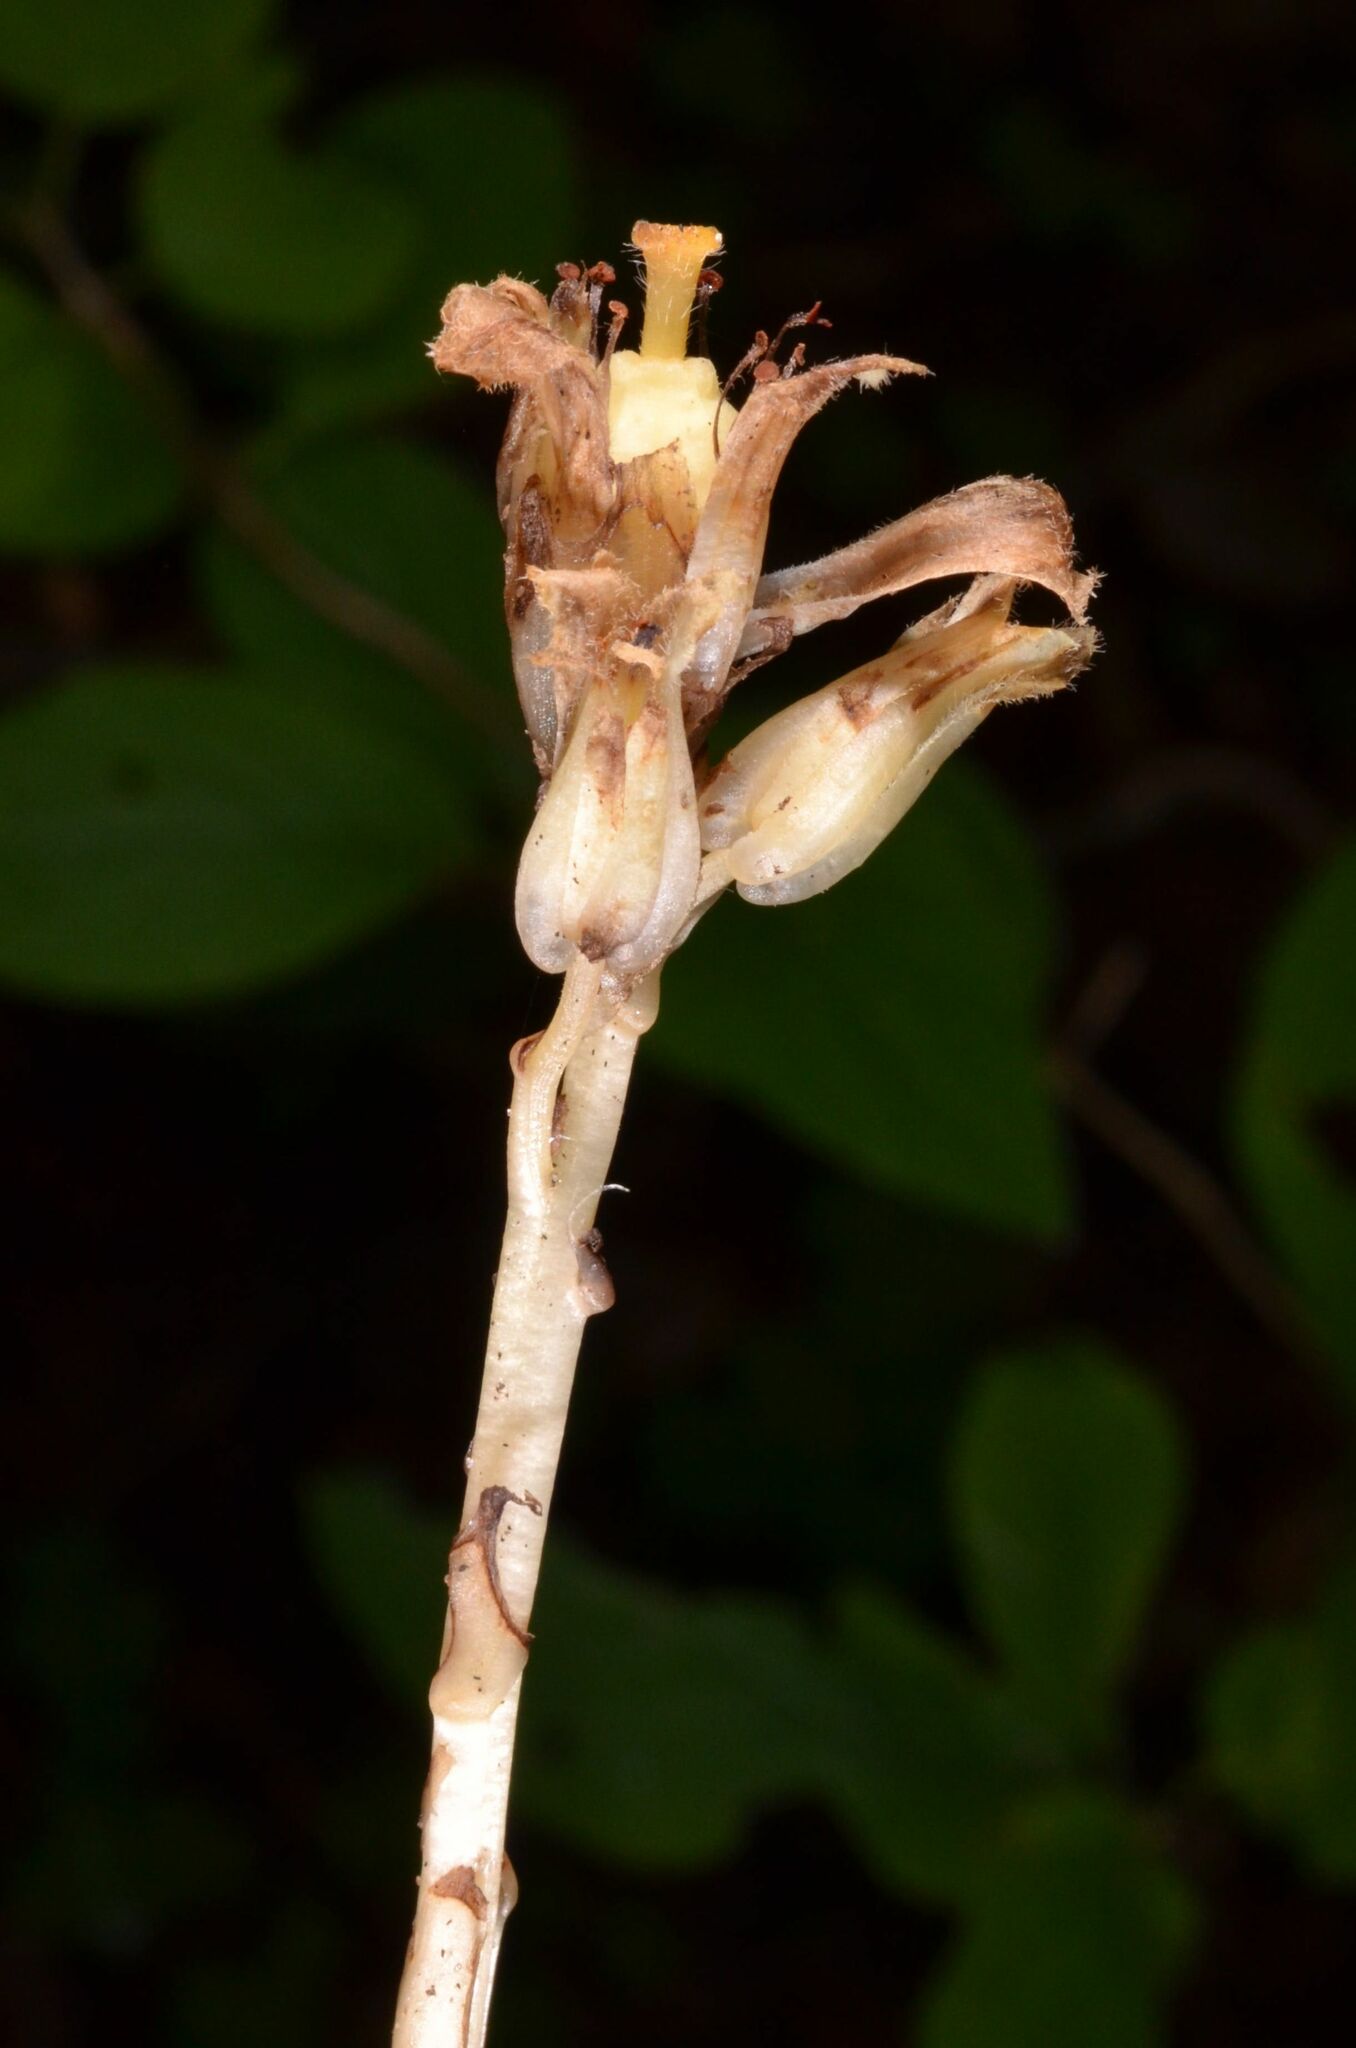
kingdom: Plantae
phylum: Tracheophyta
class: Magnoliopsida
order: Ericales
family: Ericaceae
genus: Hypopitys
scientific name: Hypopitys monotropa
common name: Yellow bird's-nest
